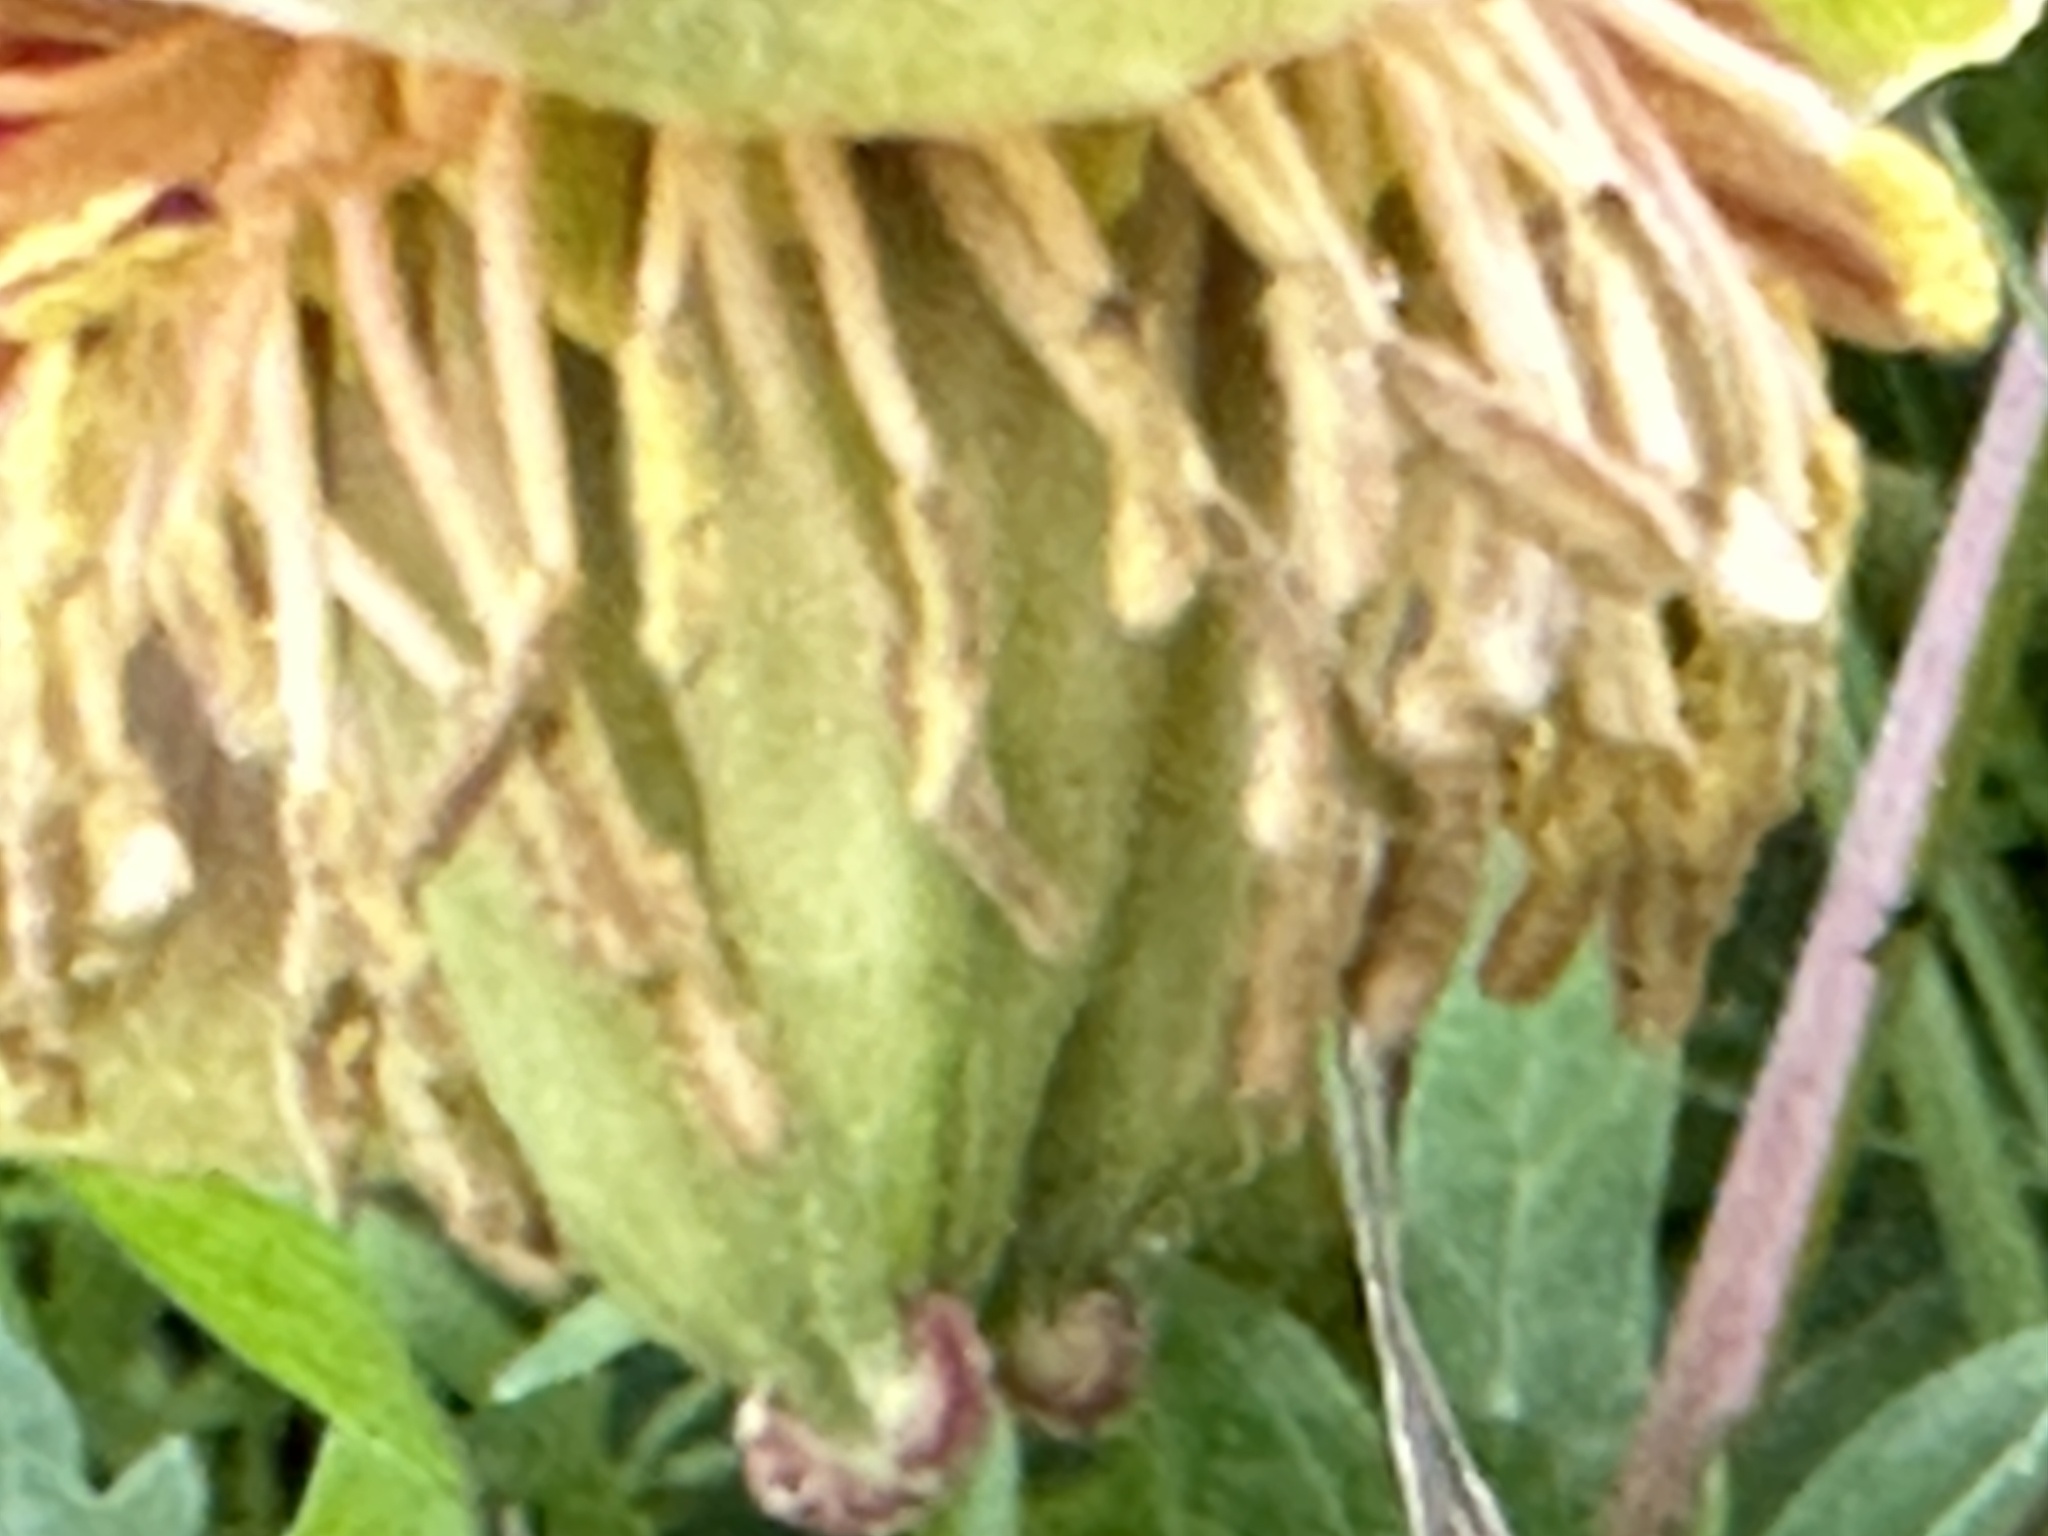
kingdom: Plantae
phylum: Tracheophyta
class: Magnoliopsida
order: Saxifragales
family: Paeoniaceae
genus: Paeonia
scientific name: Paeonia californica
